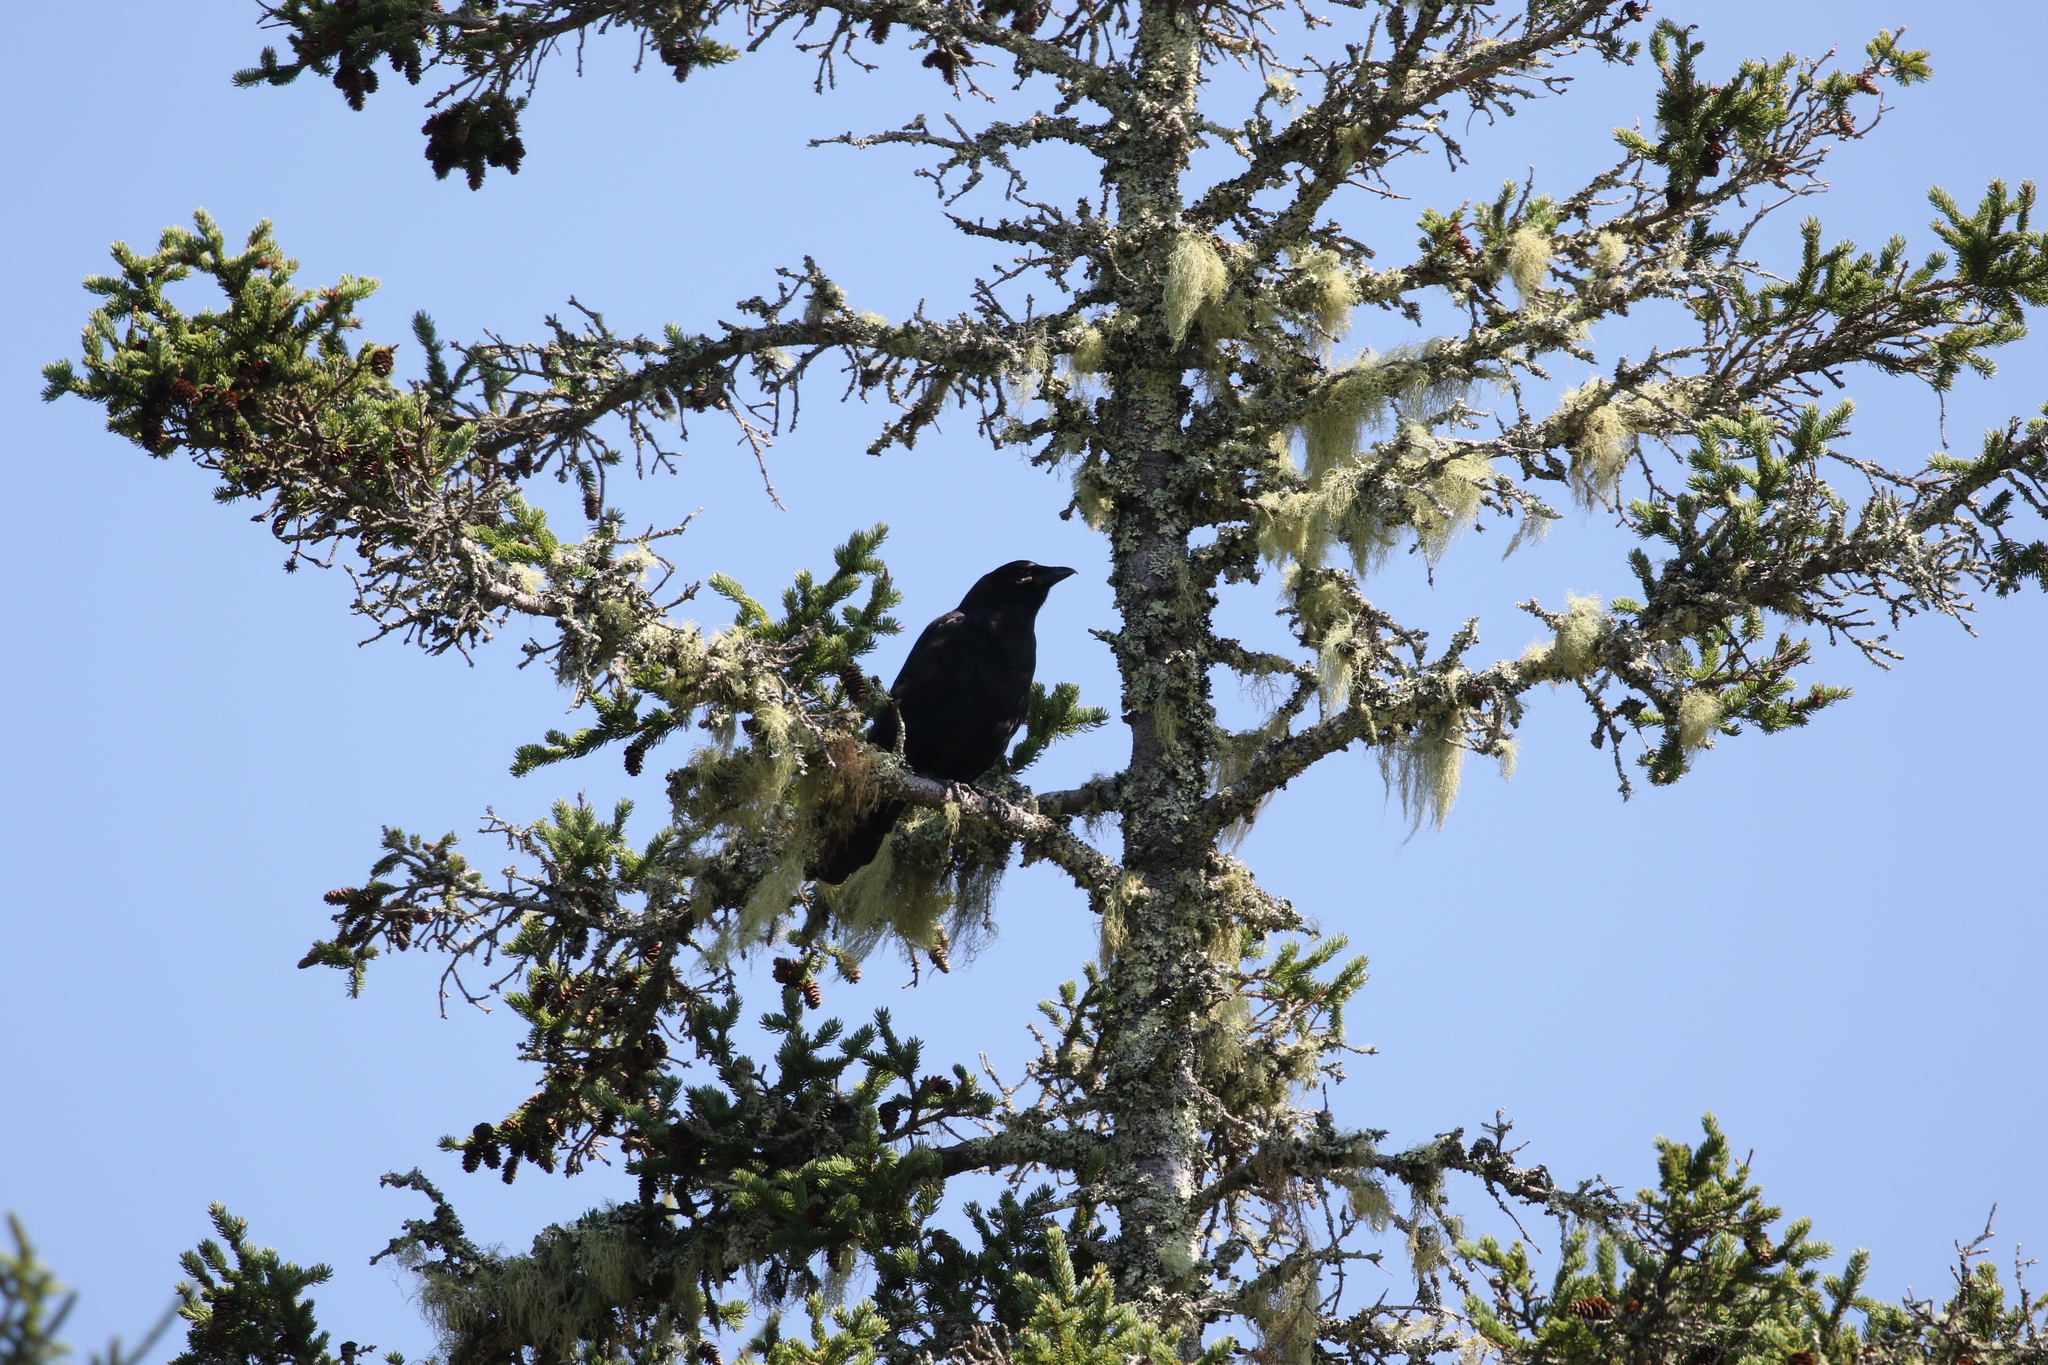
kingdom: Animalia
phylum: Chordata
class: Aves
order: Passeriformes
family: Corvidae
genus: Corvus
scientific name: Corvus brachyrhynchos
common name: American crow
